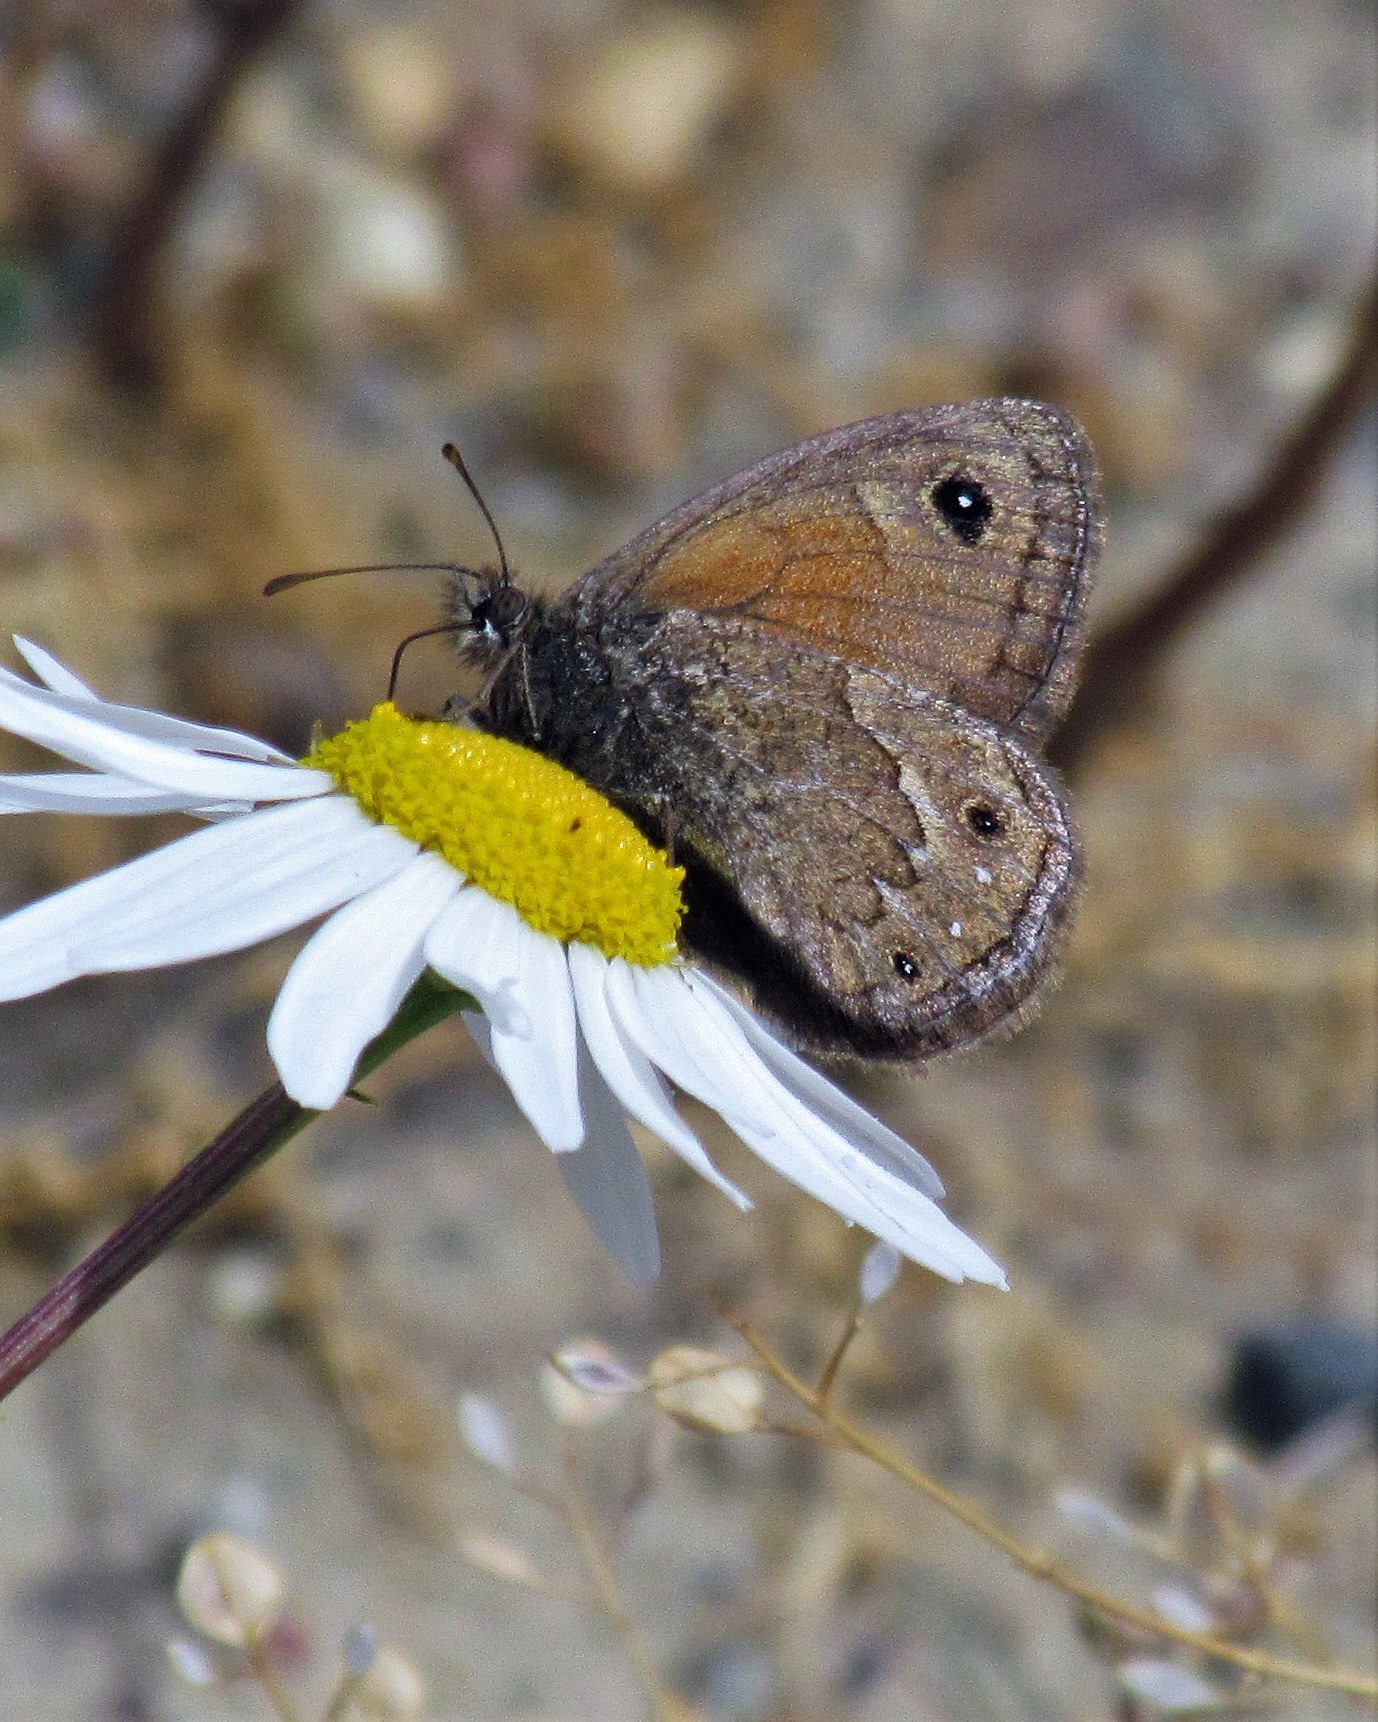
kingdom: Animalia
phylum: Arthropoda
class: Insecta
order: Lepidoptera
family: Nymphalidae
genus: Cosmosatyrus
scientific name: Cosmosatyrus leptoneuroides
